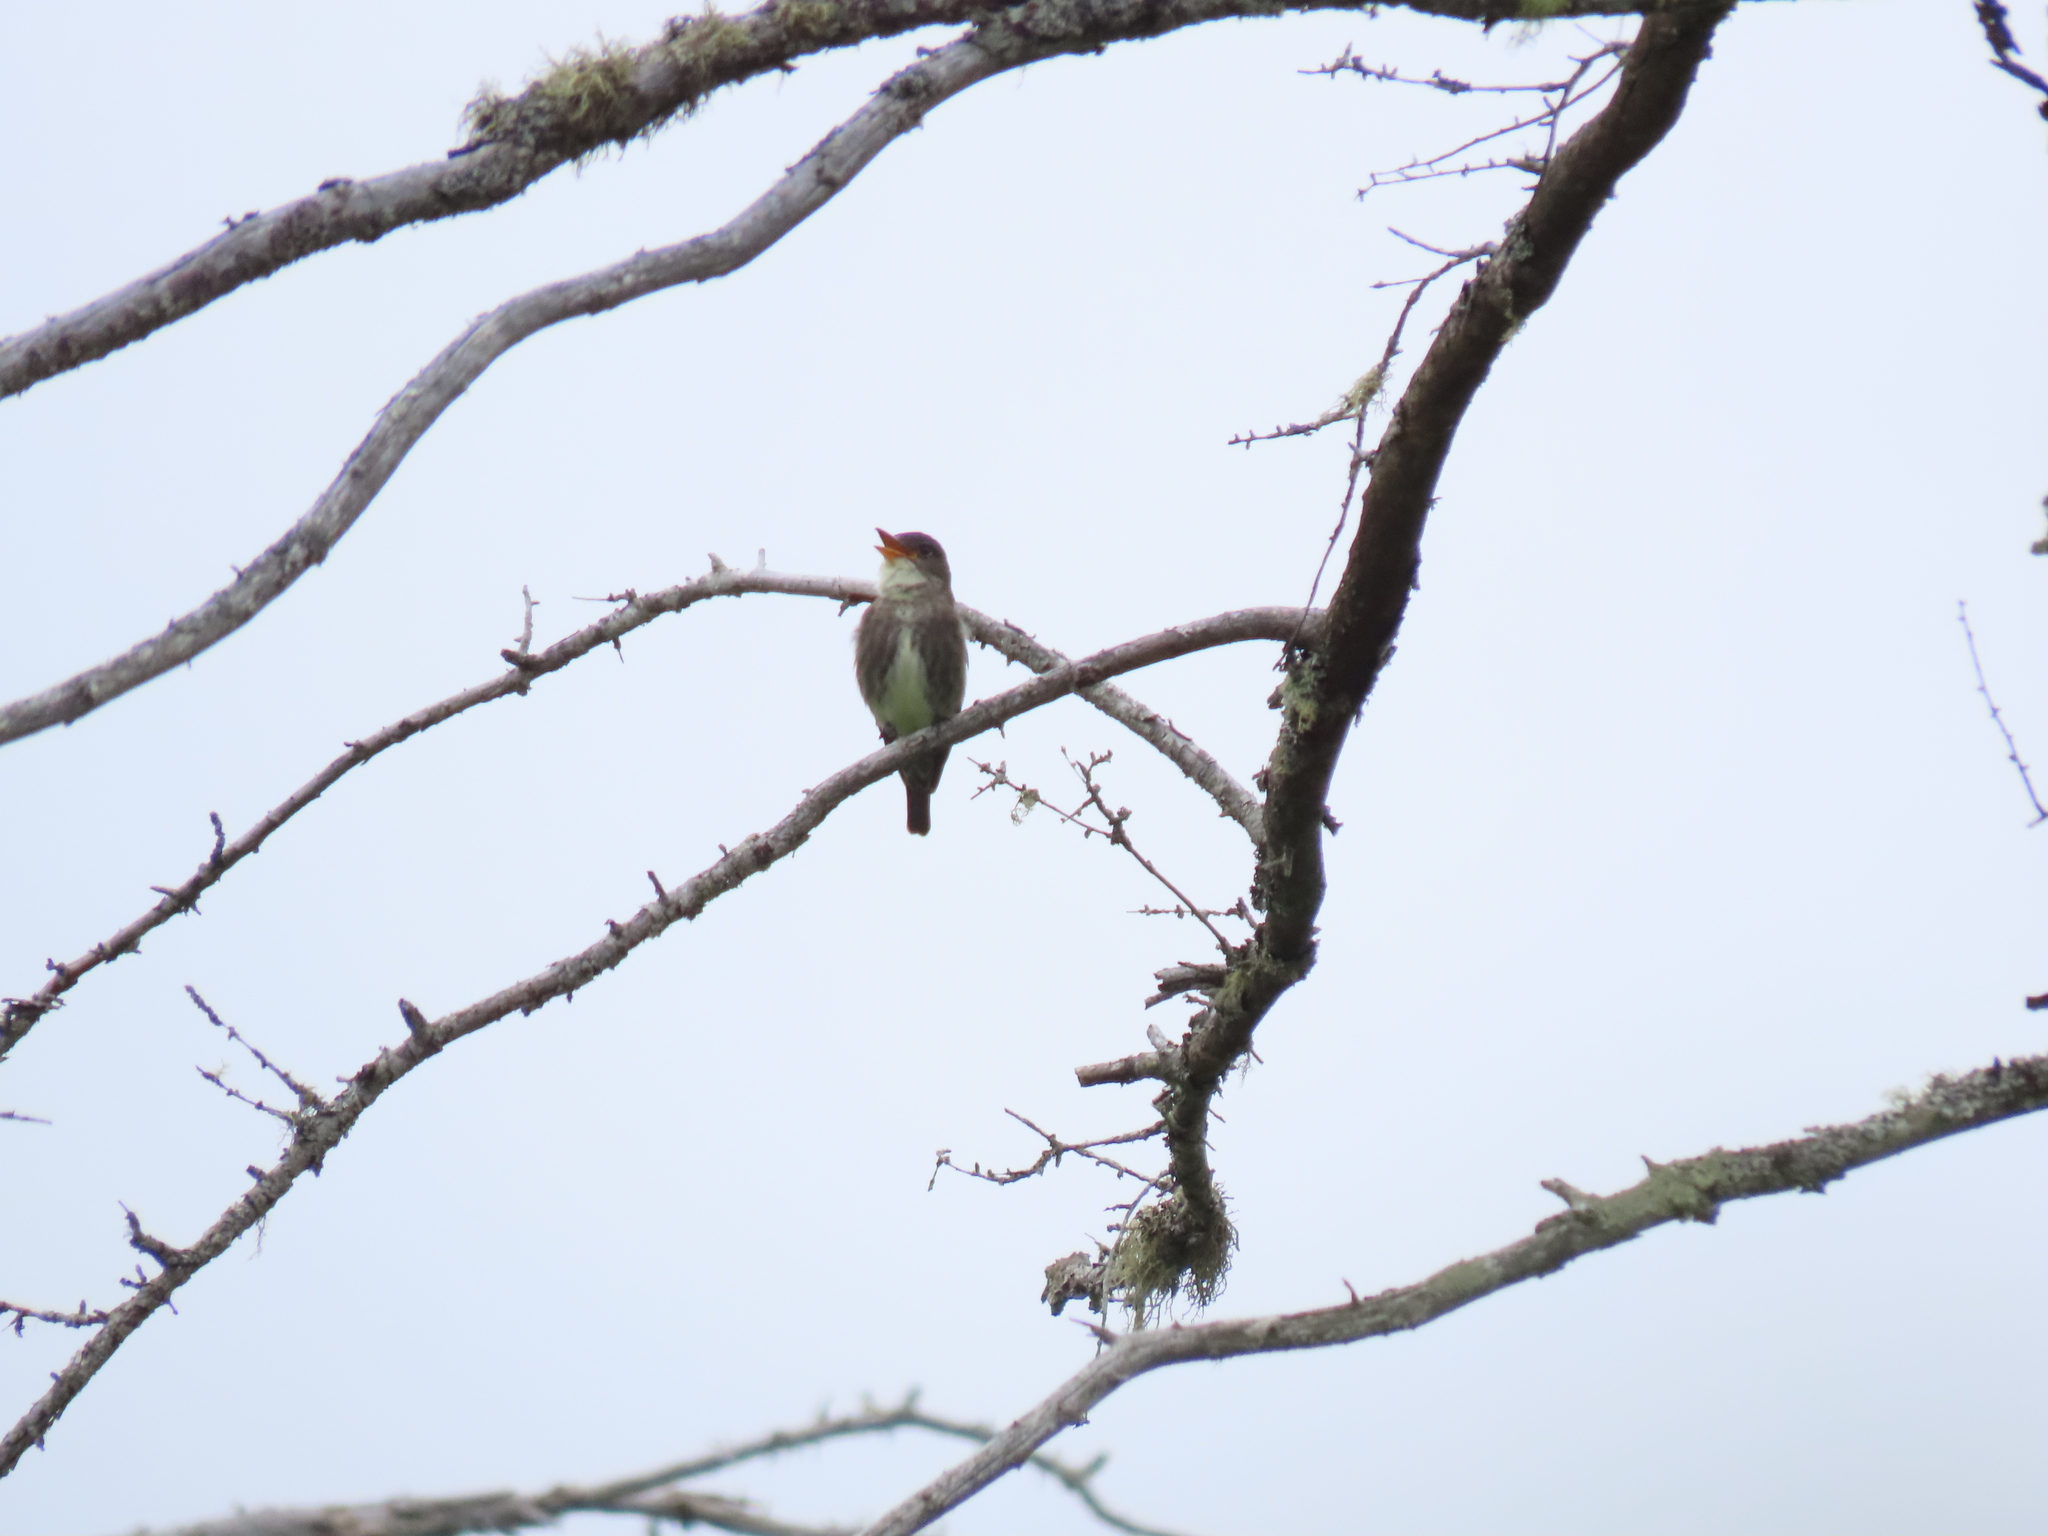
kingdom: Animalia
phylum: Chordata
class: Aves
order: Passeriformes
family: Tyrannidae
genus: Contopus
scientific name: Contopus cooperi
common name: Olive-sided flycatcher
